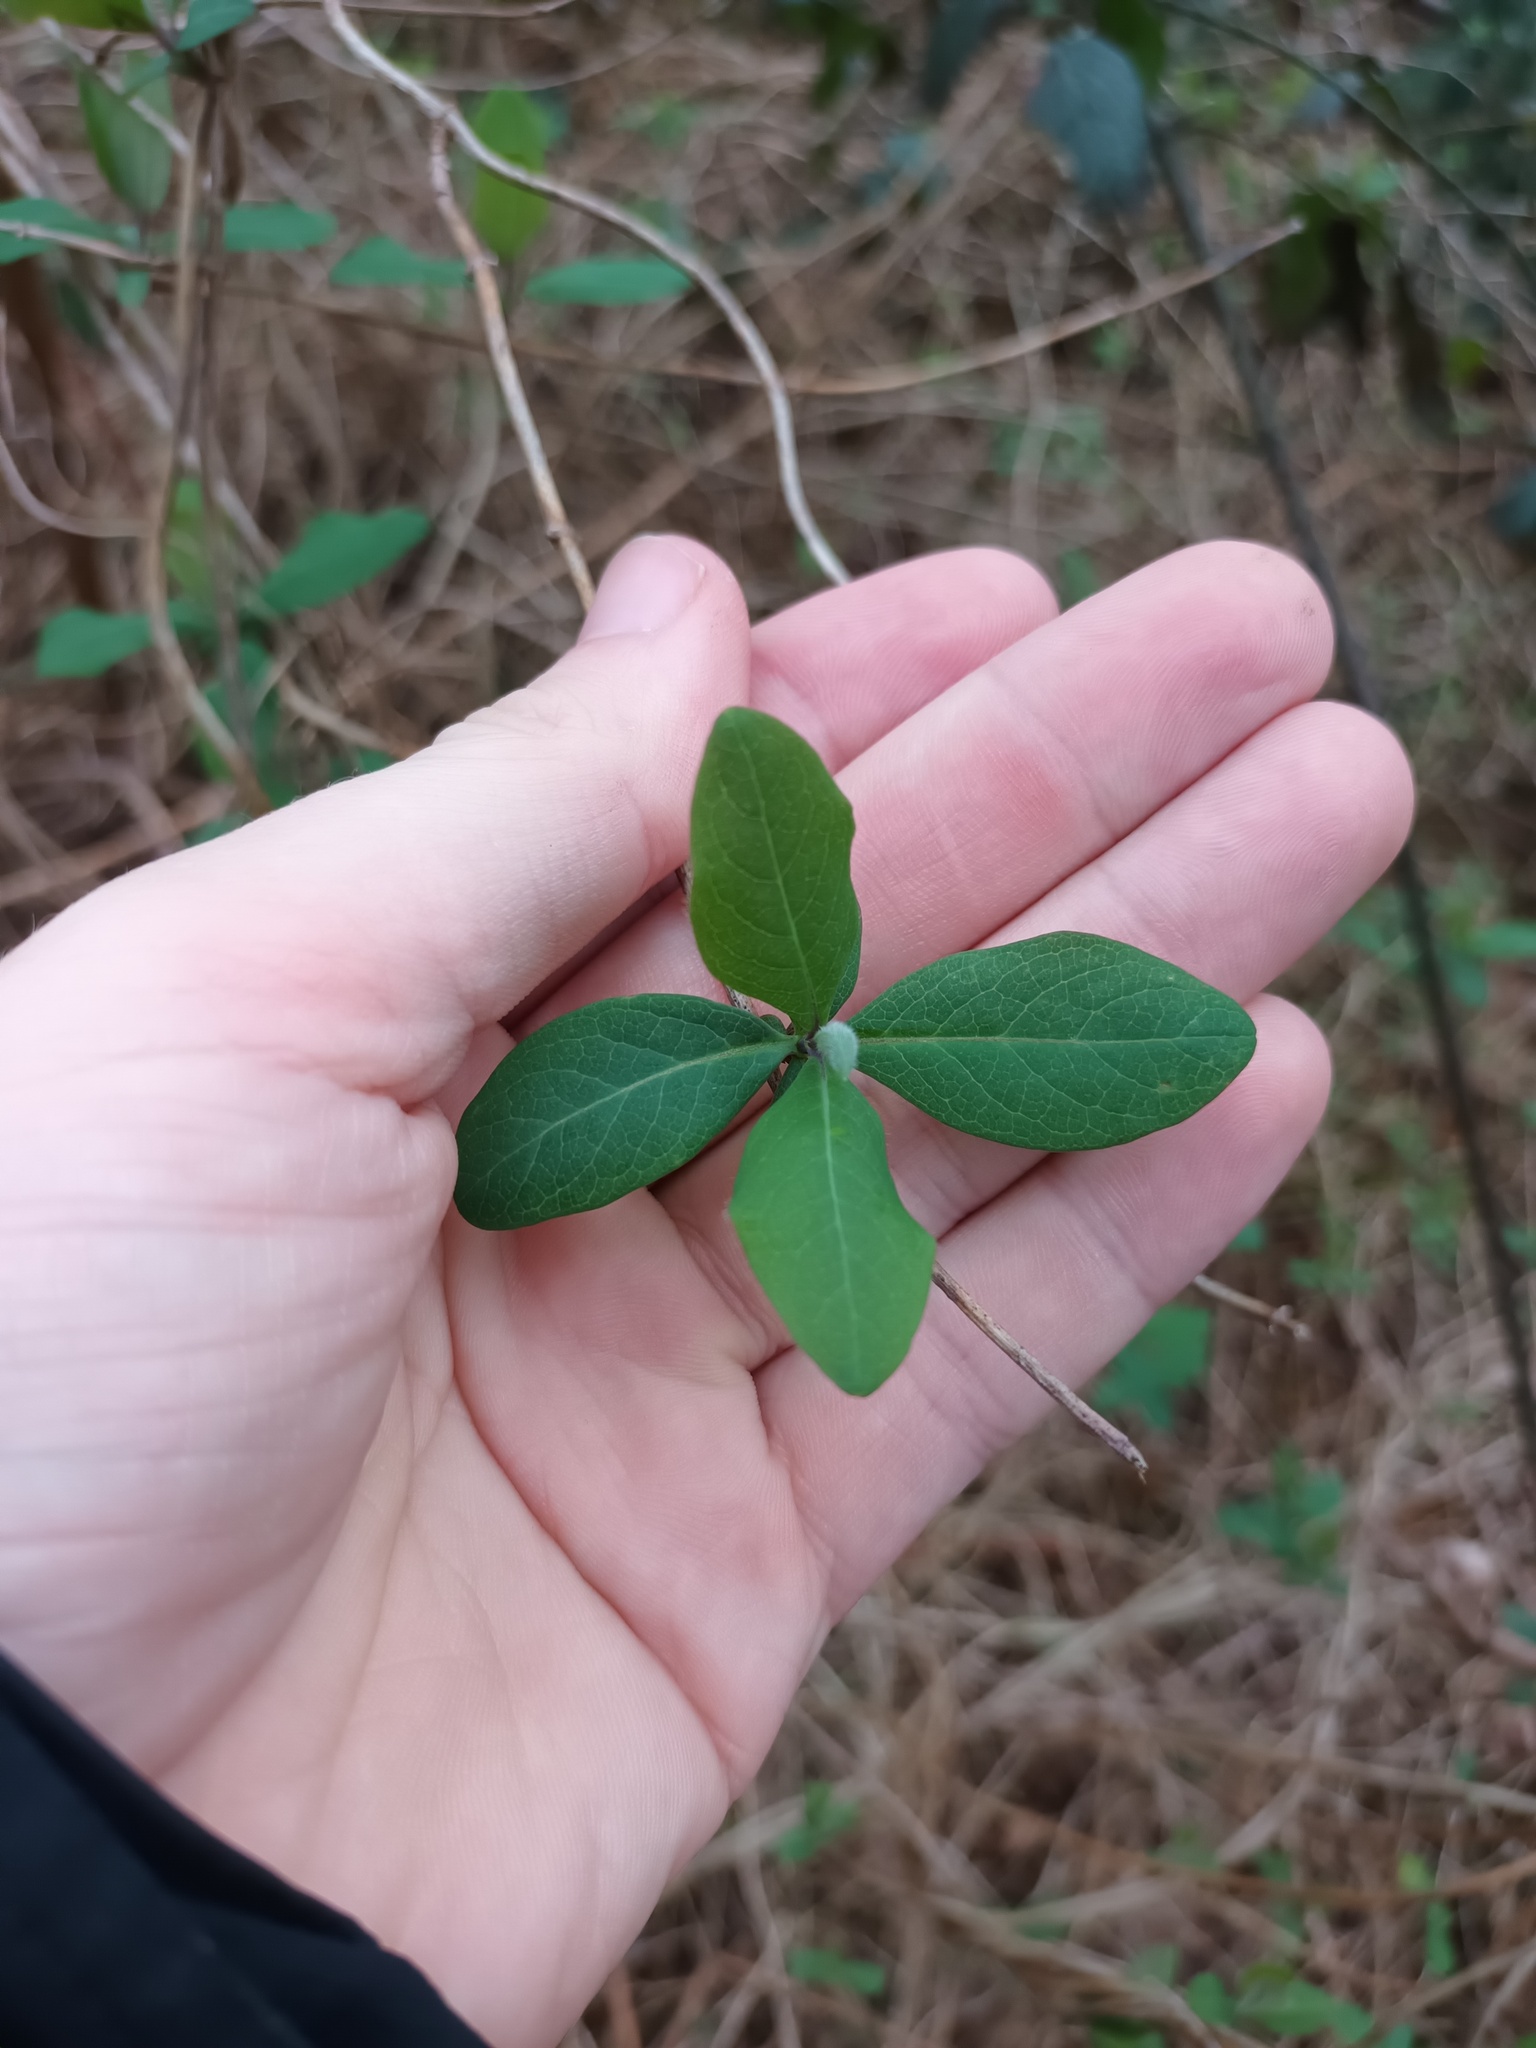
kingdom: Plantae
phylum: Tracheophyta
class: Magnoliopsida
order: Dipsacales
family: Caprifoliaceae
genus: Lonicera
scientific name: Lonicera periclymenum
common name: European honeysuckle
